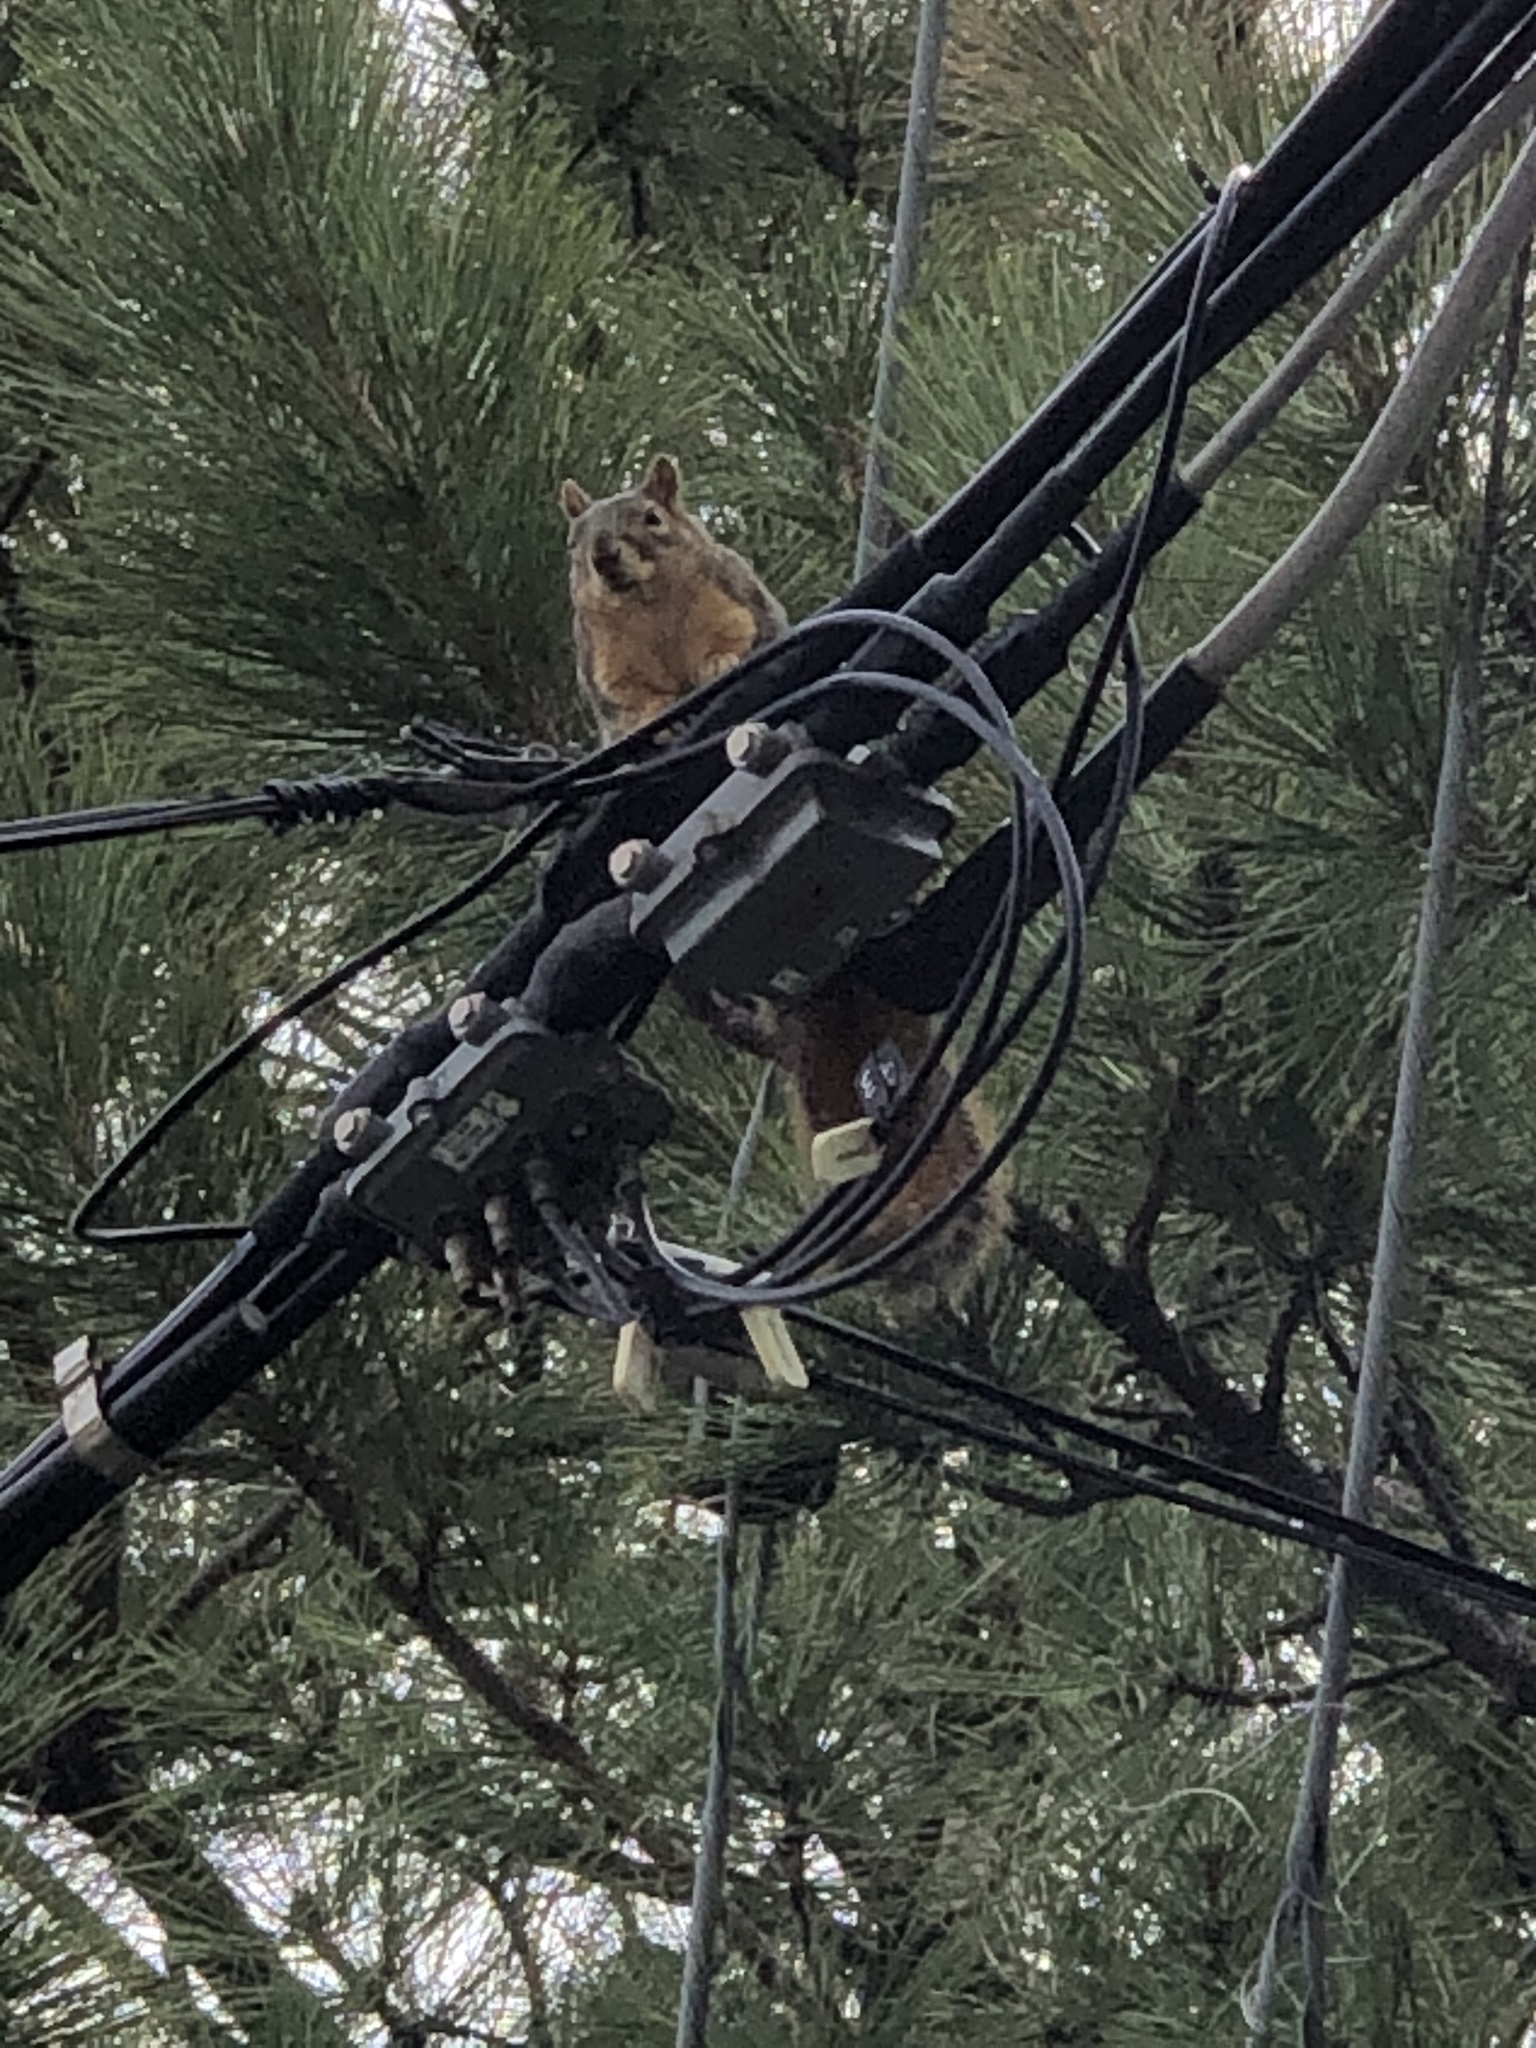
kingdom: Animalia
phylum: Chordata
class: Mammalia
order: Rodentia
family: Sciuridae
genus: Sciurus
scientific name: Sciurus niger
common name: Fox squirrel
